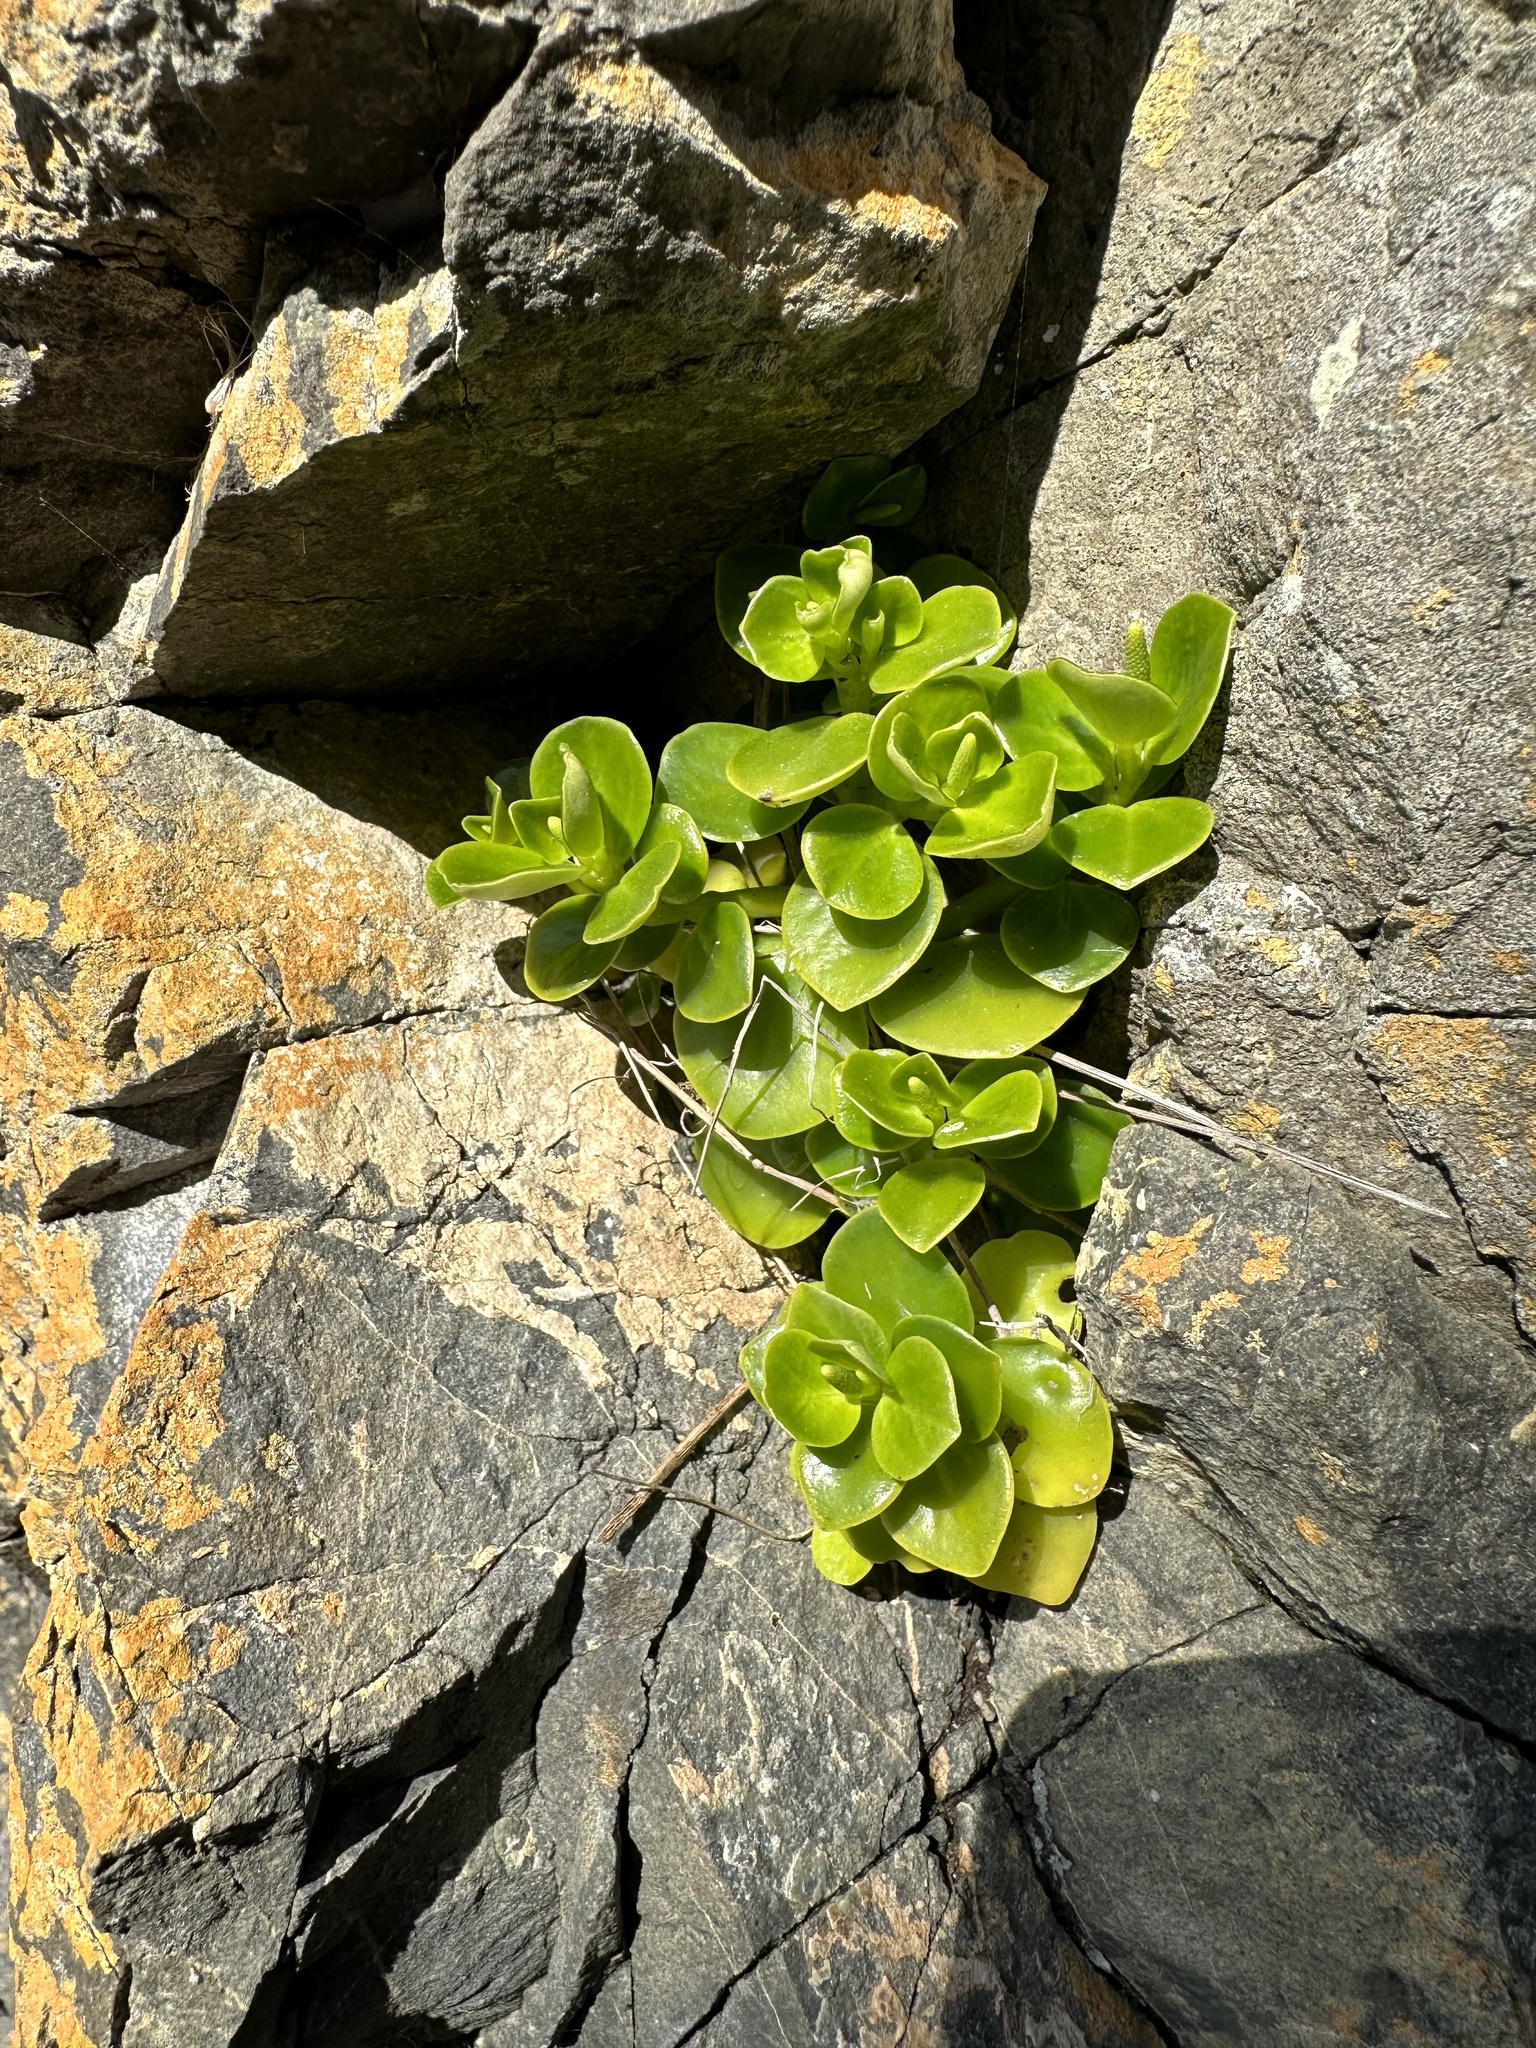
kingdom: Plantae
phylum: Tracheophyta
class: Magnoliopsida
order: Piperales
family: Piperaceae
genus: Peperomia
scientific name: Peperomia urvilleana
